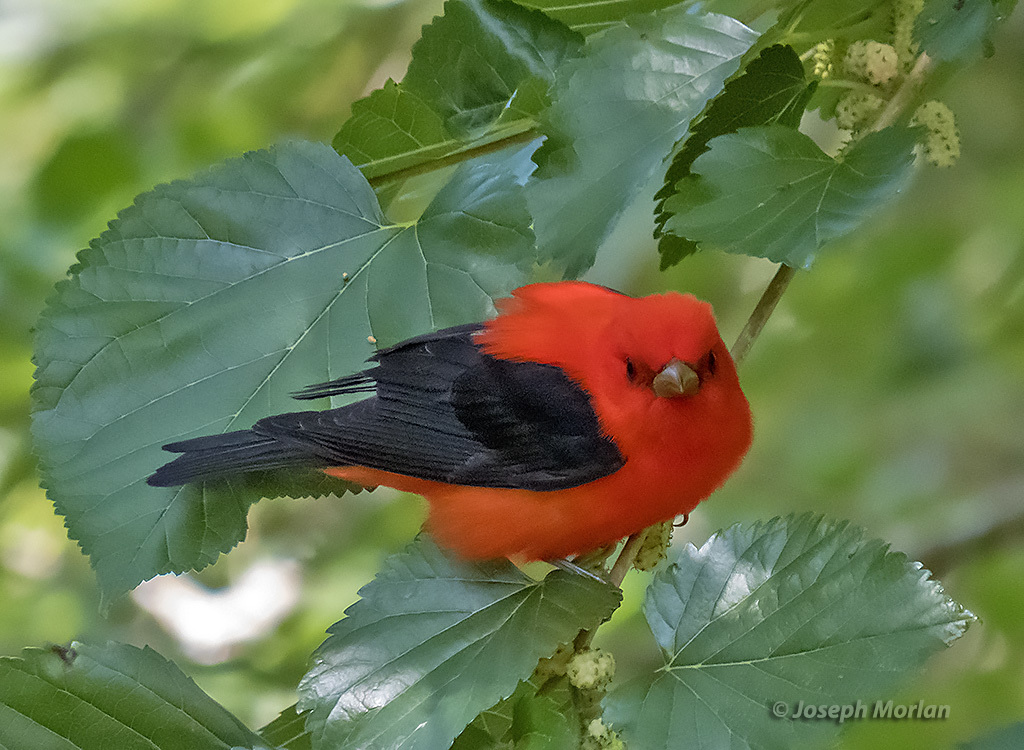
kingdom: Animalia
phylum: Chordata
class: Aves
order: Passeriformes
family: Cardinalidae
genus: Piranga
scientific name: Piranga olivacea
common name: Scarlet tanager
